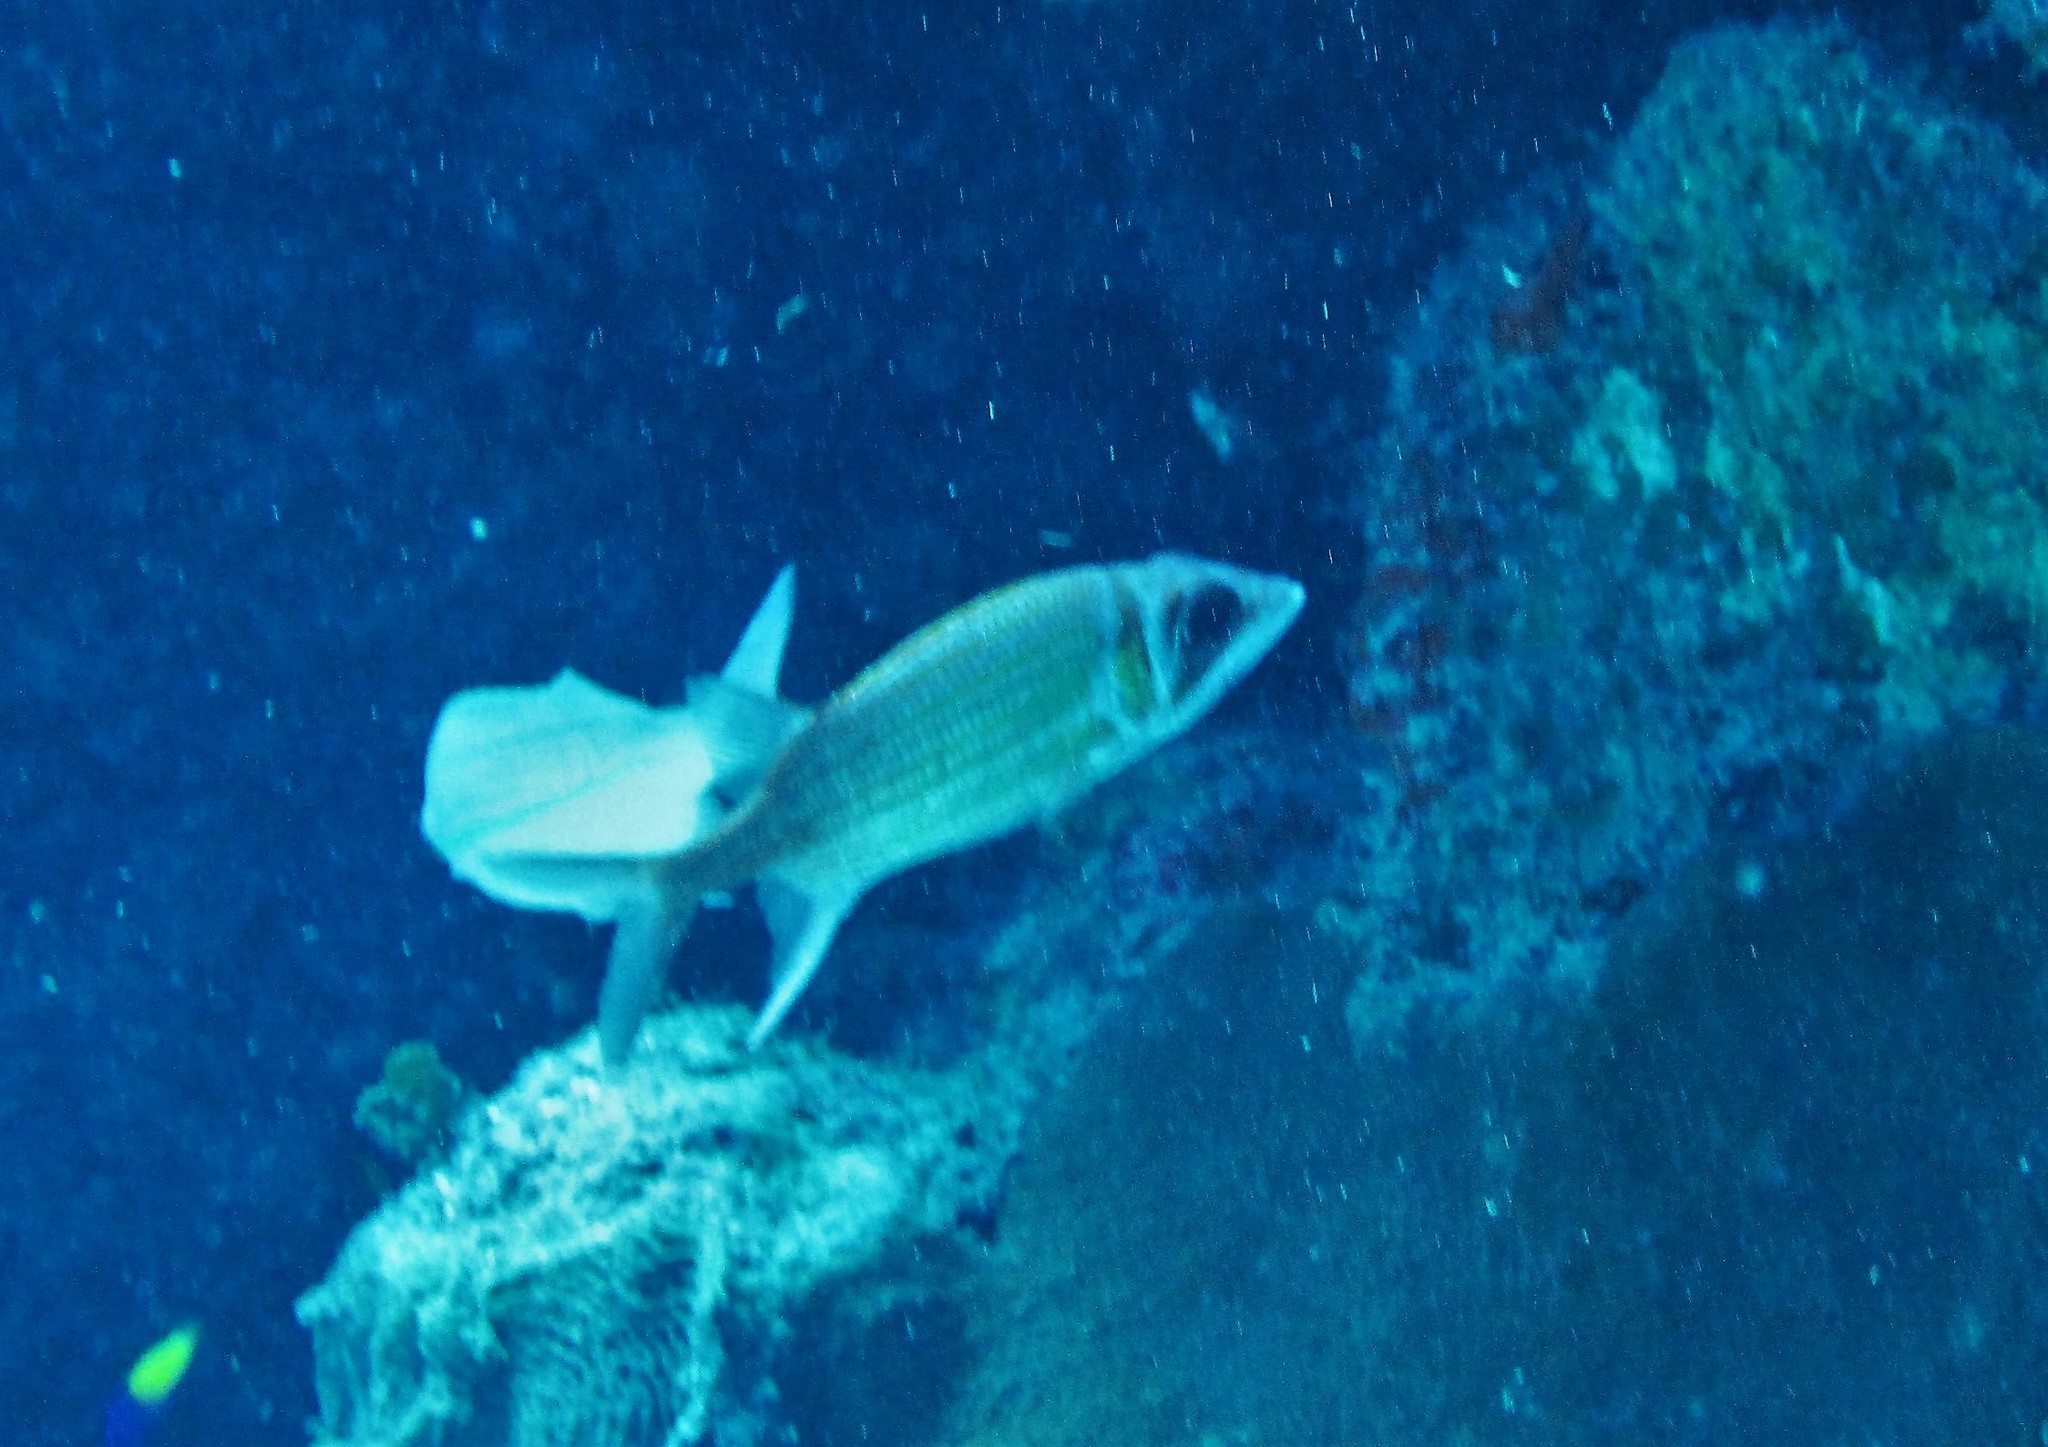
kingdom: Animalia
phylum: Chordata
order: Beryciformes
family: Holocentridae
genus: Neoniphon
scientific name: Neoniphon marianus
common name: Longjaw squirrelfish
